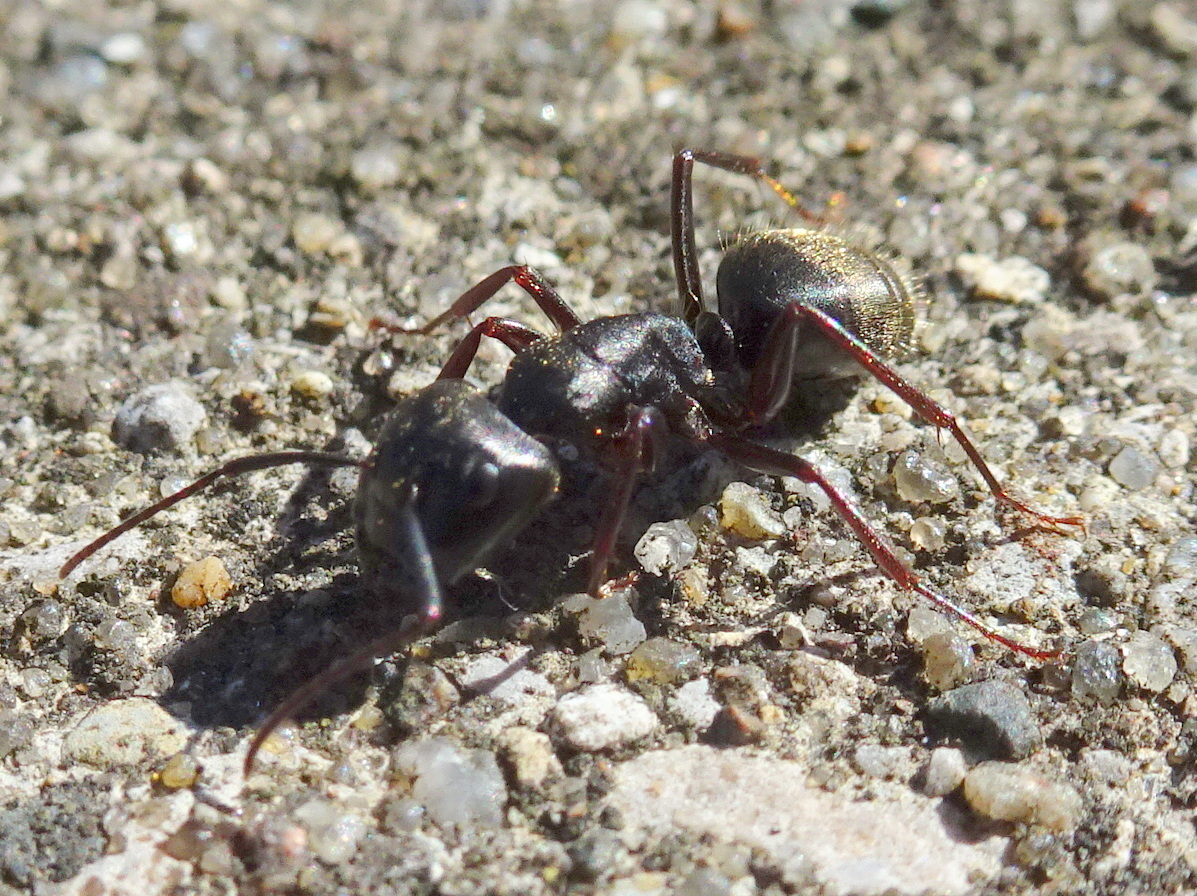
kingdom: Animalia
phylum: Arthropoda
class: Insecta
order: Hymenoptera
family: Formicidae
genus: Camponotus
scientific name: Camponotus pennsylvanicus
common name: Black carpenter ant
